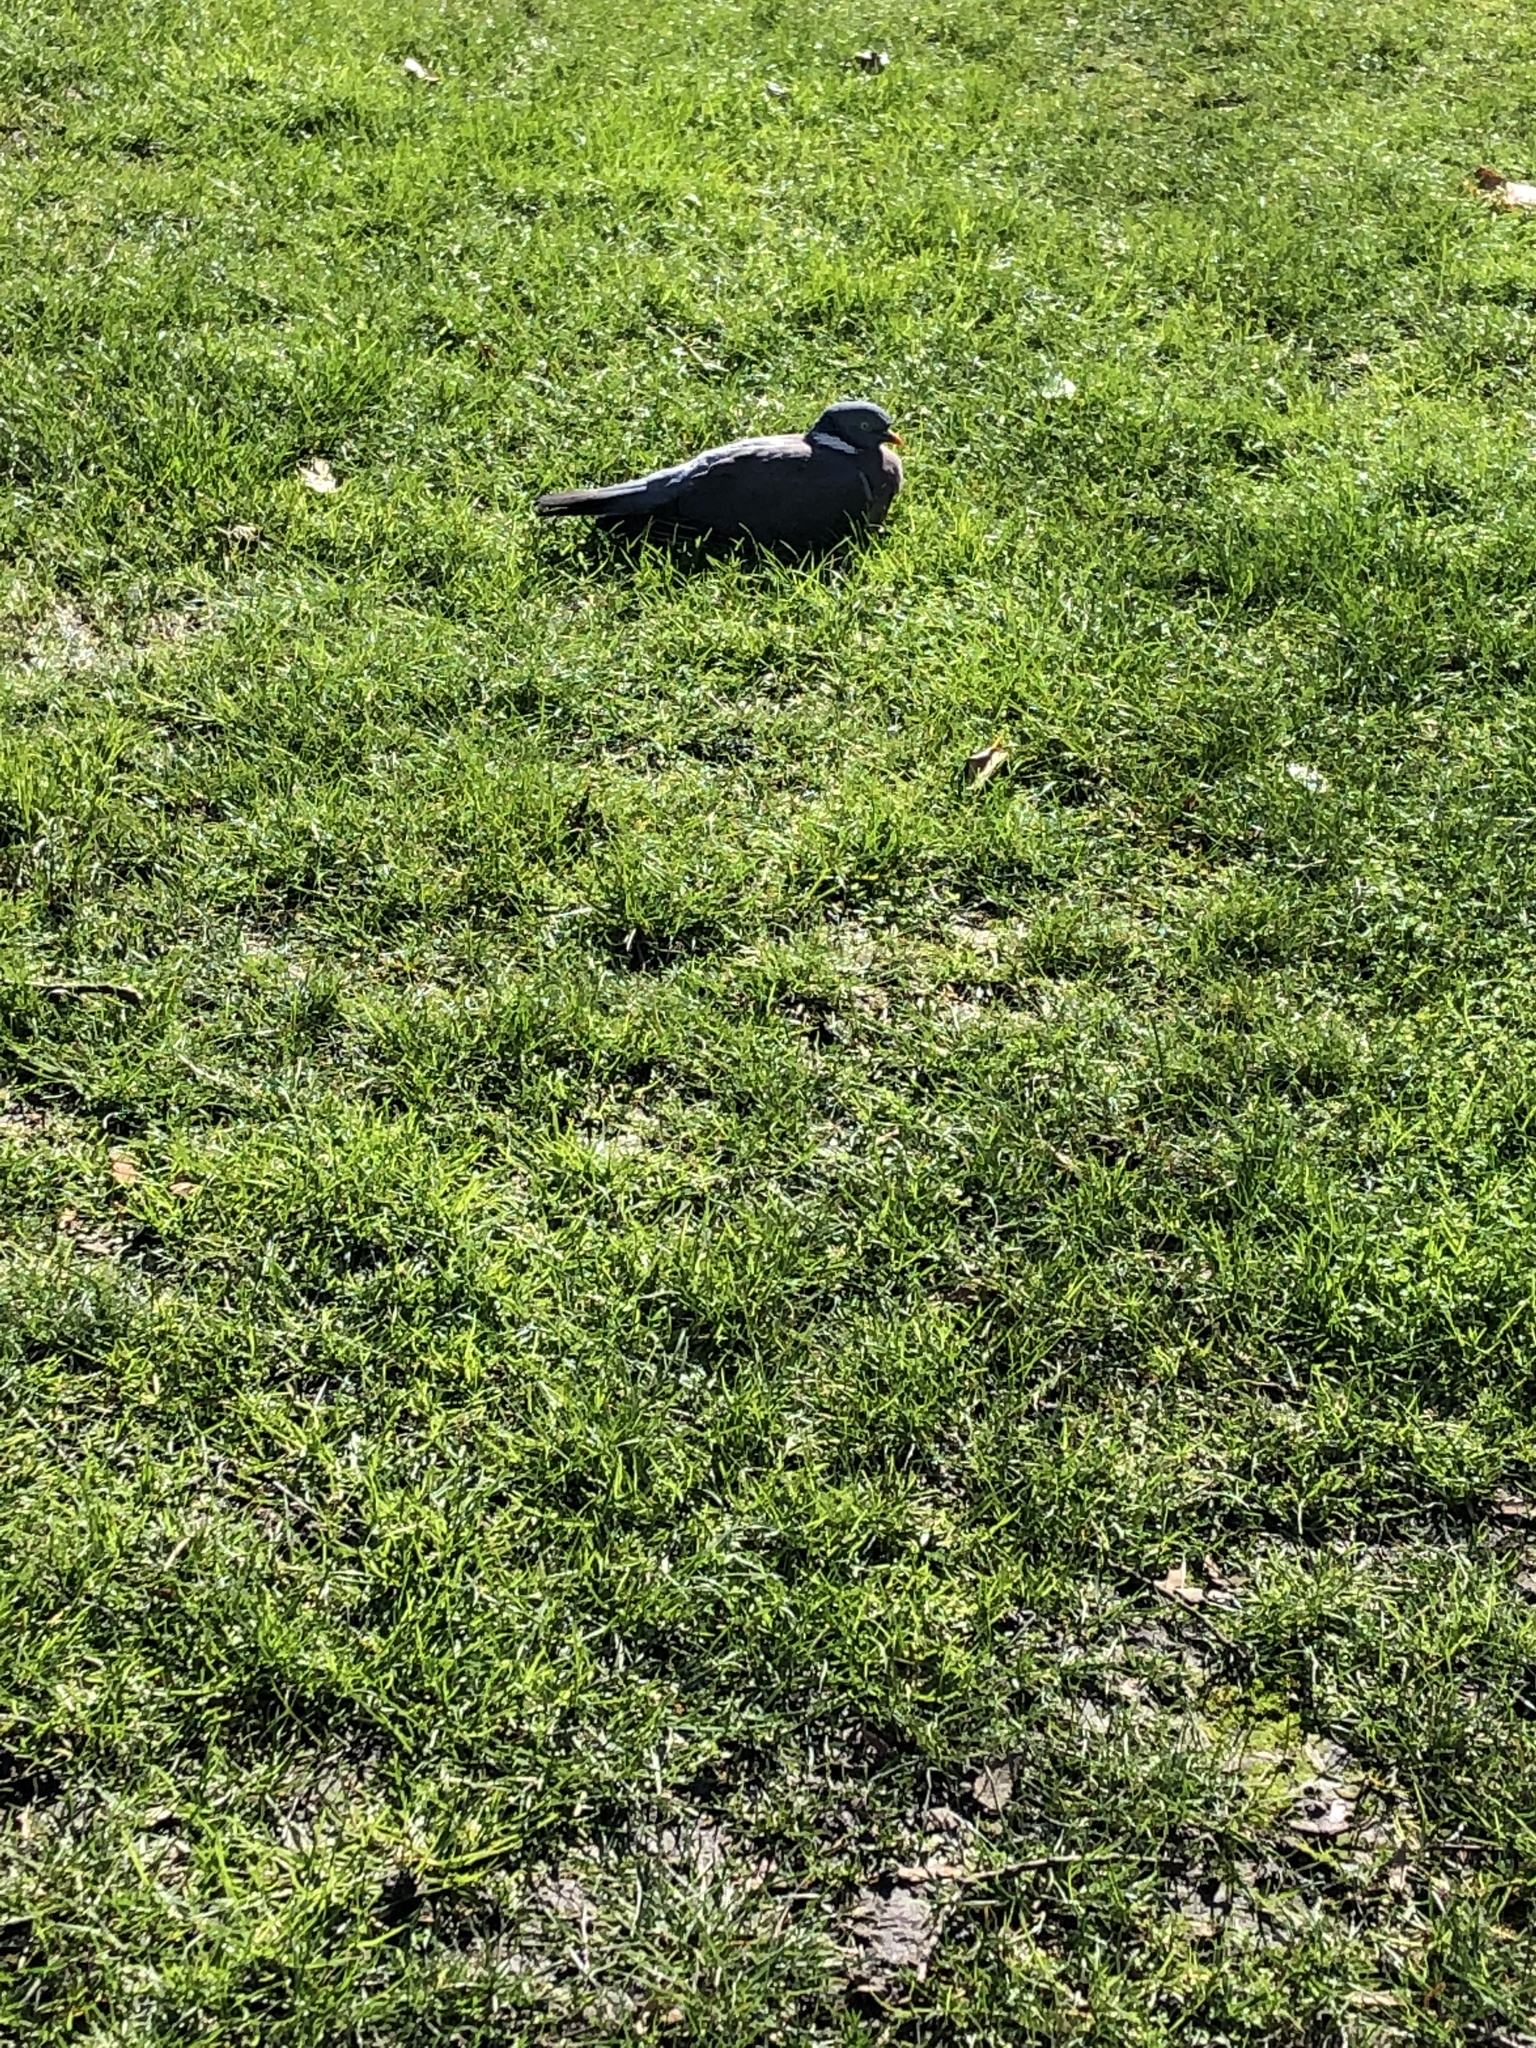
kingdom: Animalia
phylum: Chordata
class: Aves
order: Columbiformes
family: Columbidae
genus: Columba
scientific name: Columba palumbus
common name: Common wood pigeon
